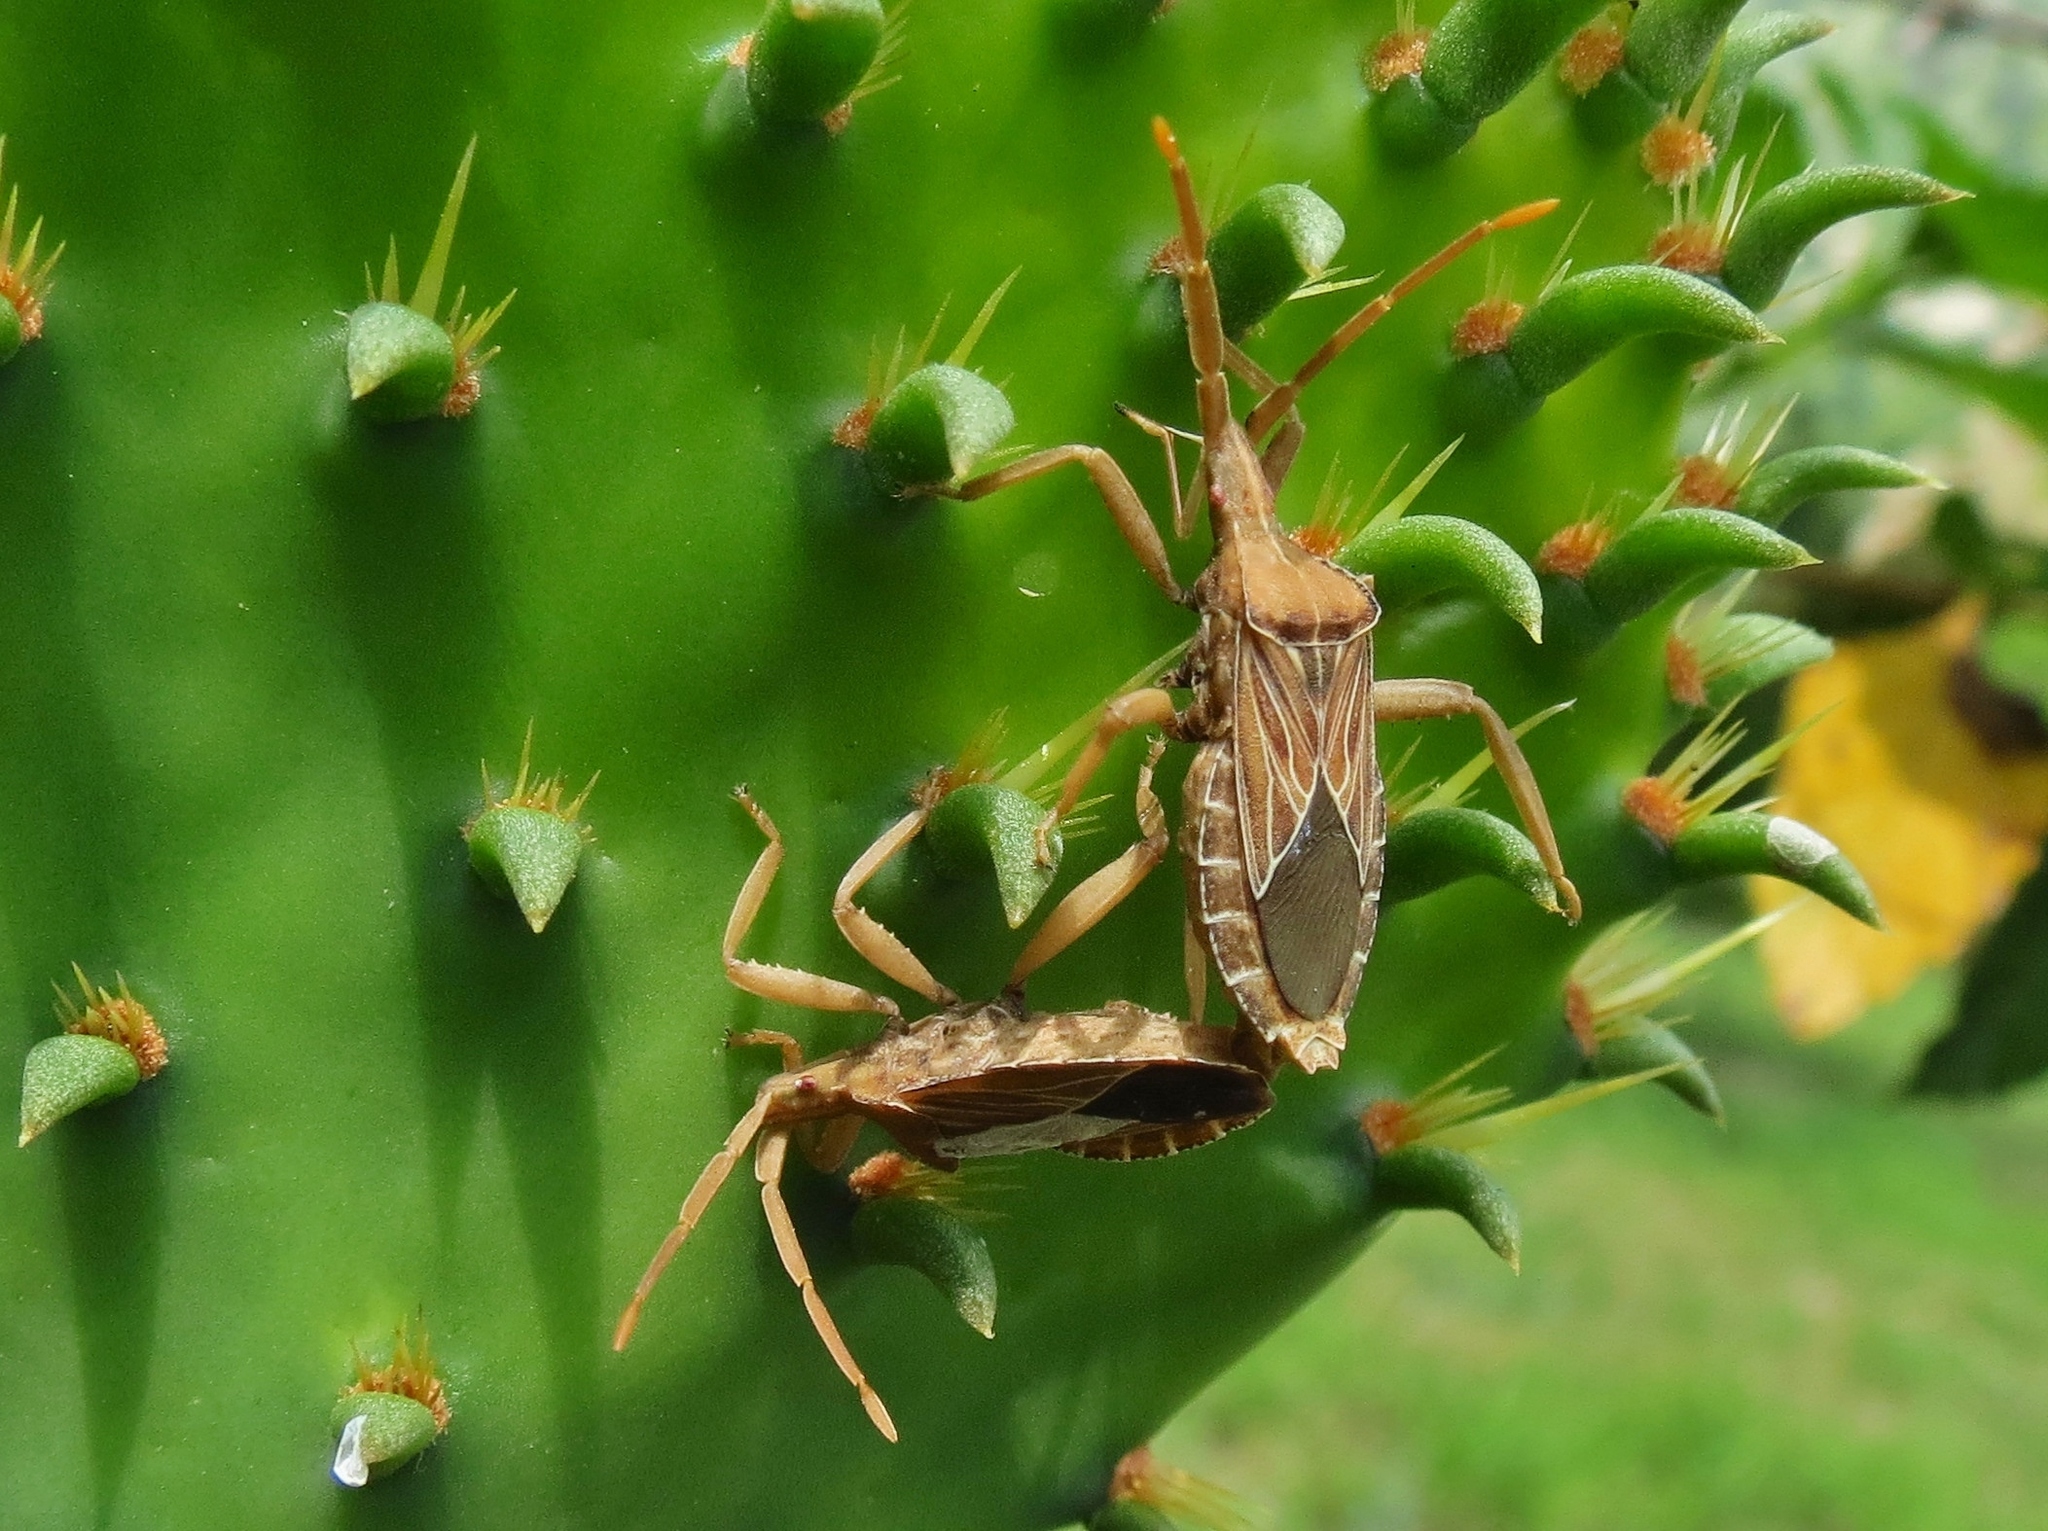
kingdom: Animalia
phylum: Arthropoda
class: Insecta
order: Hemiptera
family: Coreidae
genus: Chelinidea
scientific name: Chelinidea tabulata
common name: Prickly pear bug
